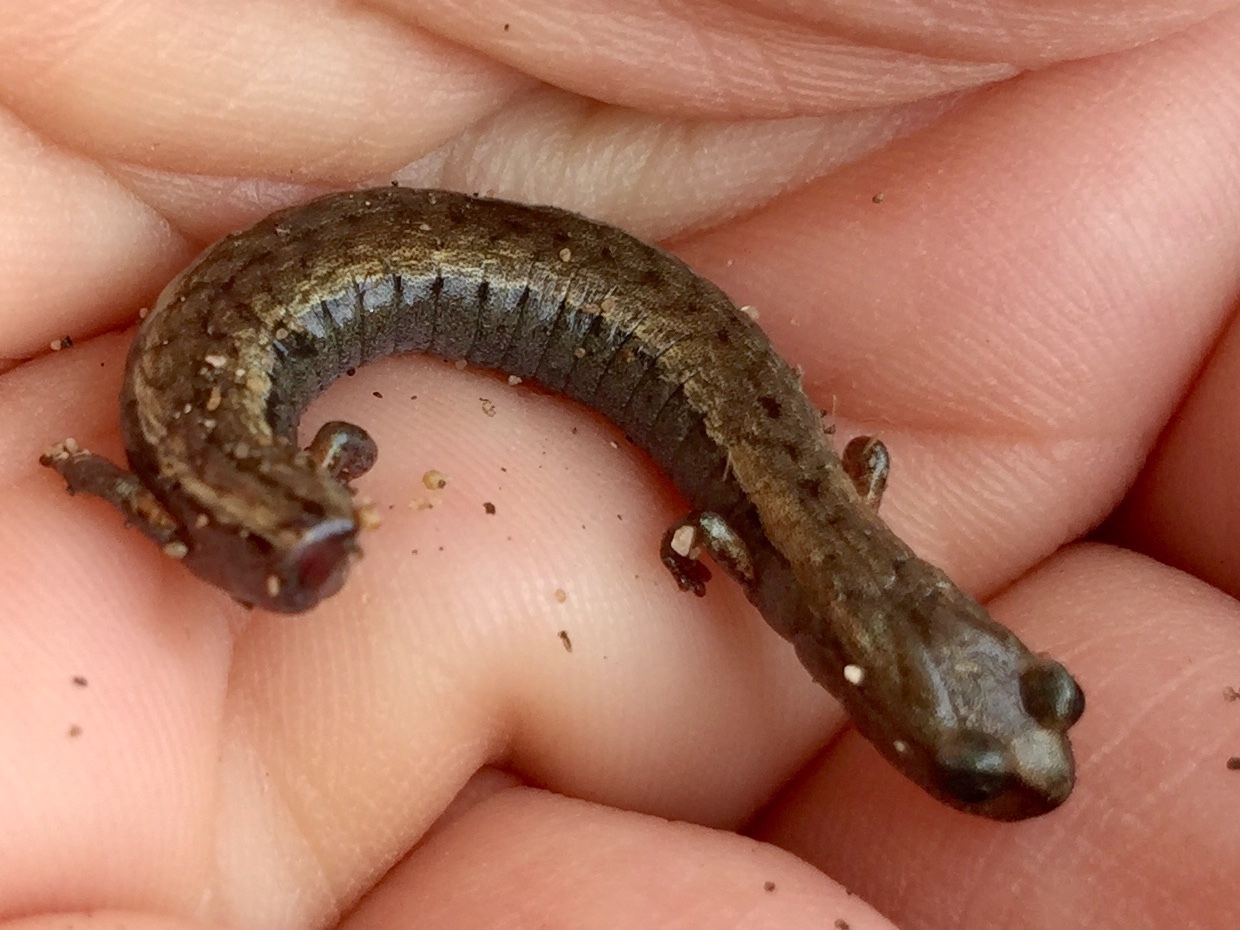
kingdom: Animalia
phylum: Chordata
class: Amphibia
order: Caudata
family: Plethodontidae
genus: Batrachoseps
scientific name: Batrachoseps attenuatus
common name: California slender salamander
